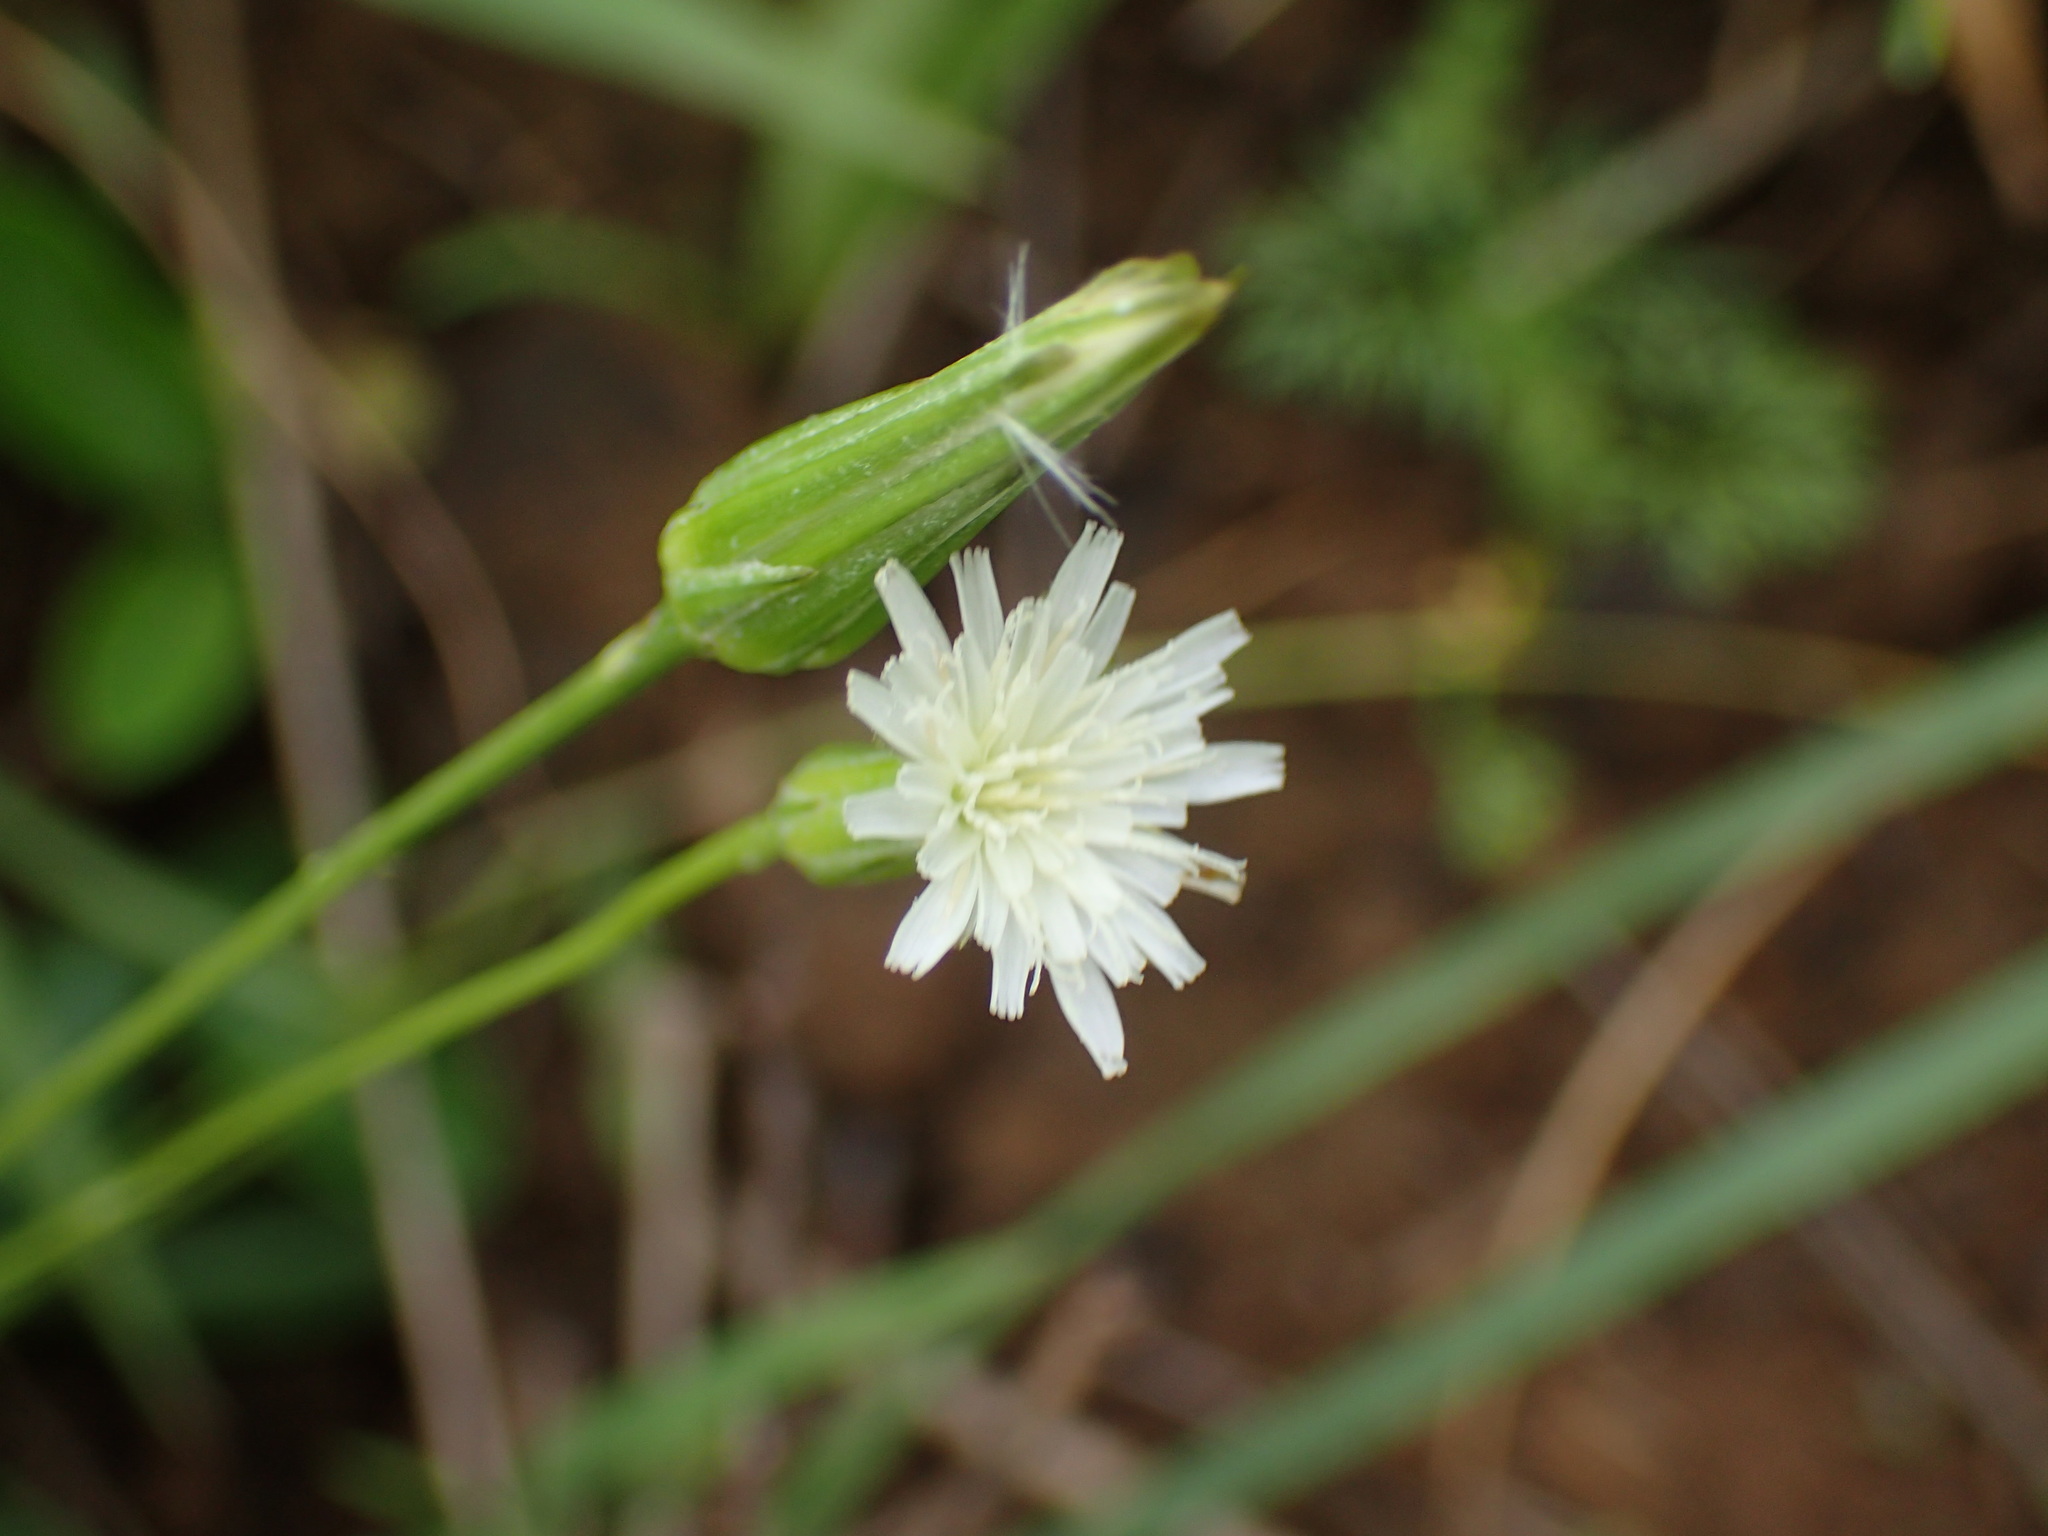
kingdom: Plantae
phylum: Tracheophyta
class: Magnoliopsida
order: Asterales
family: Asteraceae
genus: Hypochaeris
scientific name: Hypochaeris albiflora
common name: White flatweed
